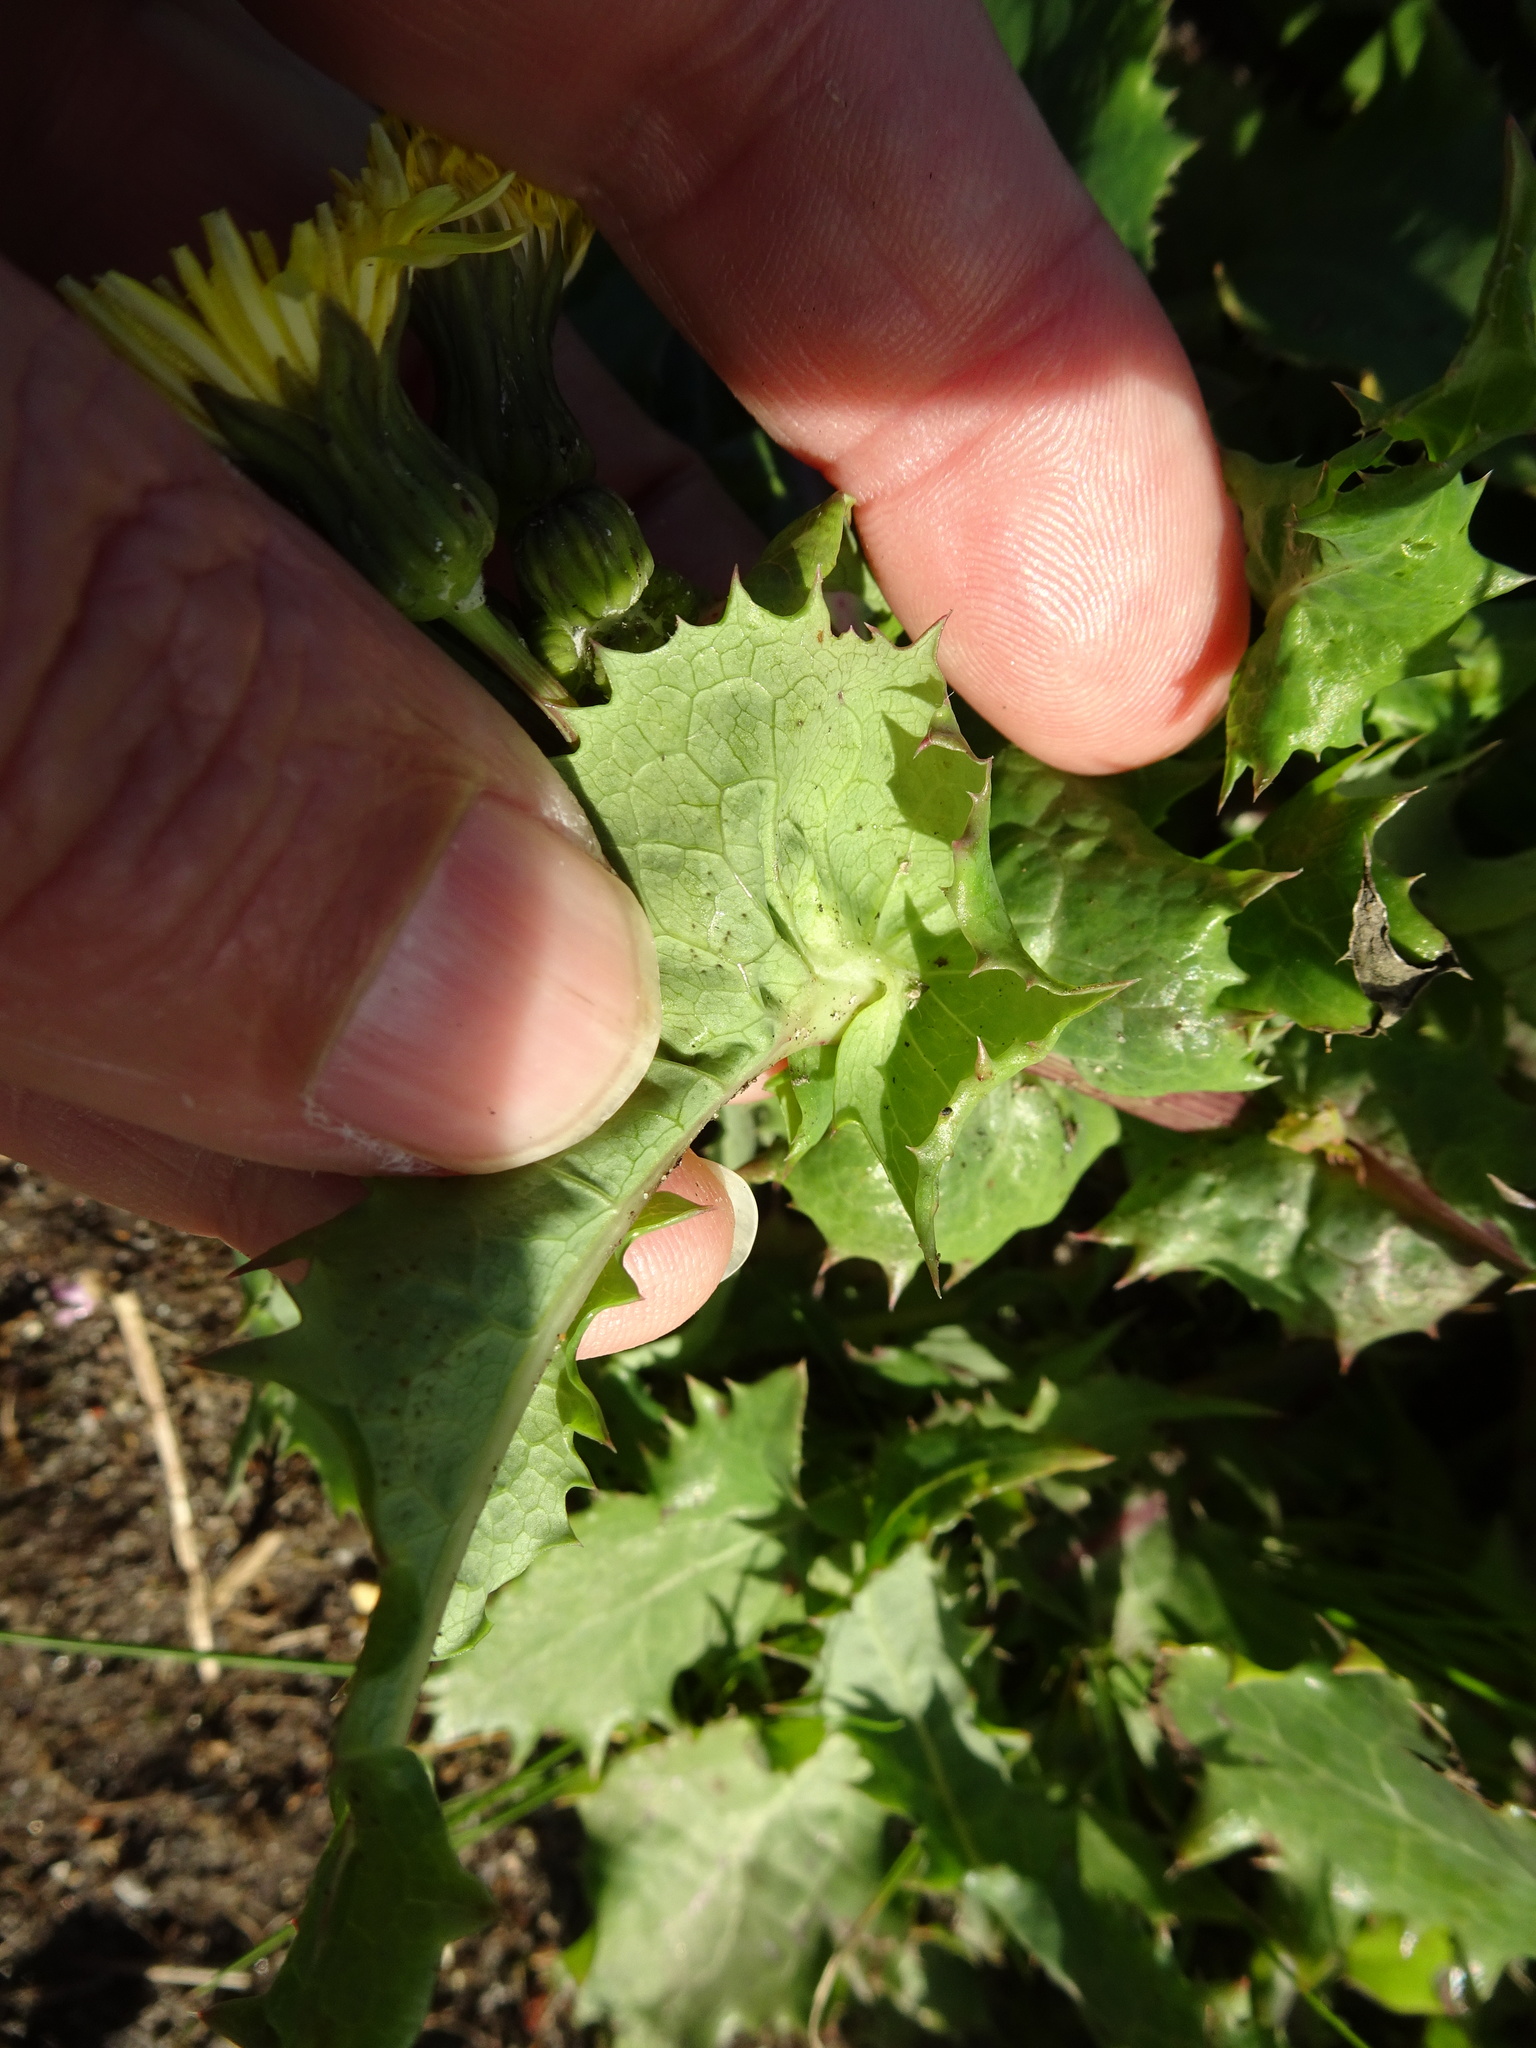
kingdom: Plantae
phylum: Tracheophyta
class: Magnoliopsida
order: Asterales
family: Asteraceae
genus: Sonchus
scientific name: Sonchus asper
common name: Prickly sow-thistle
